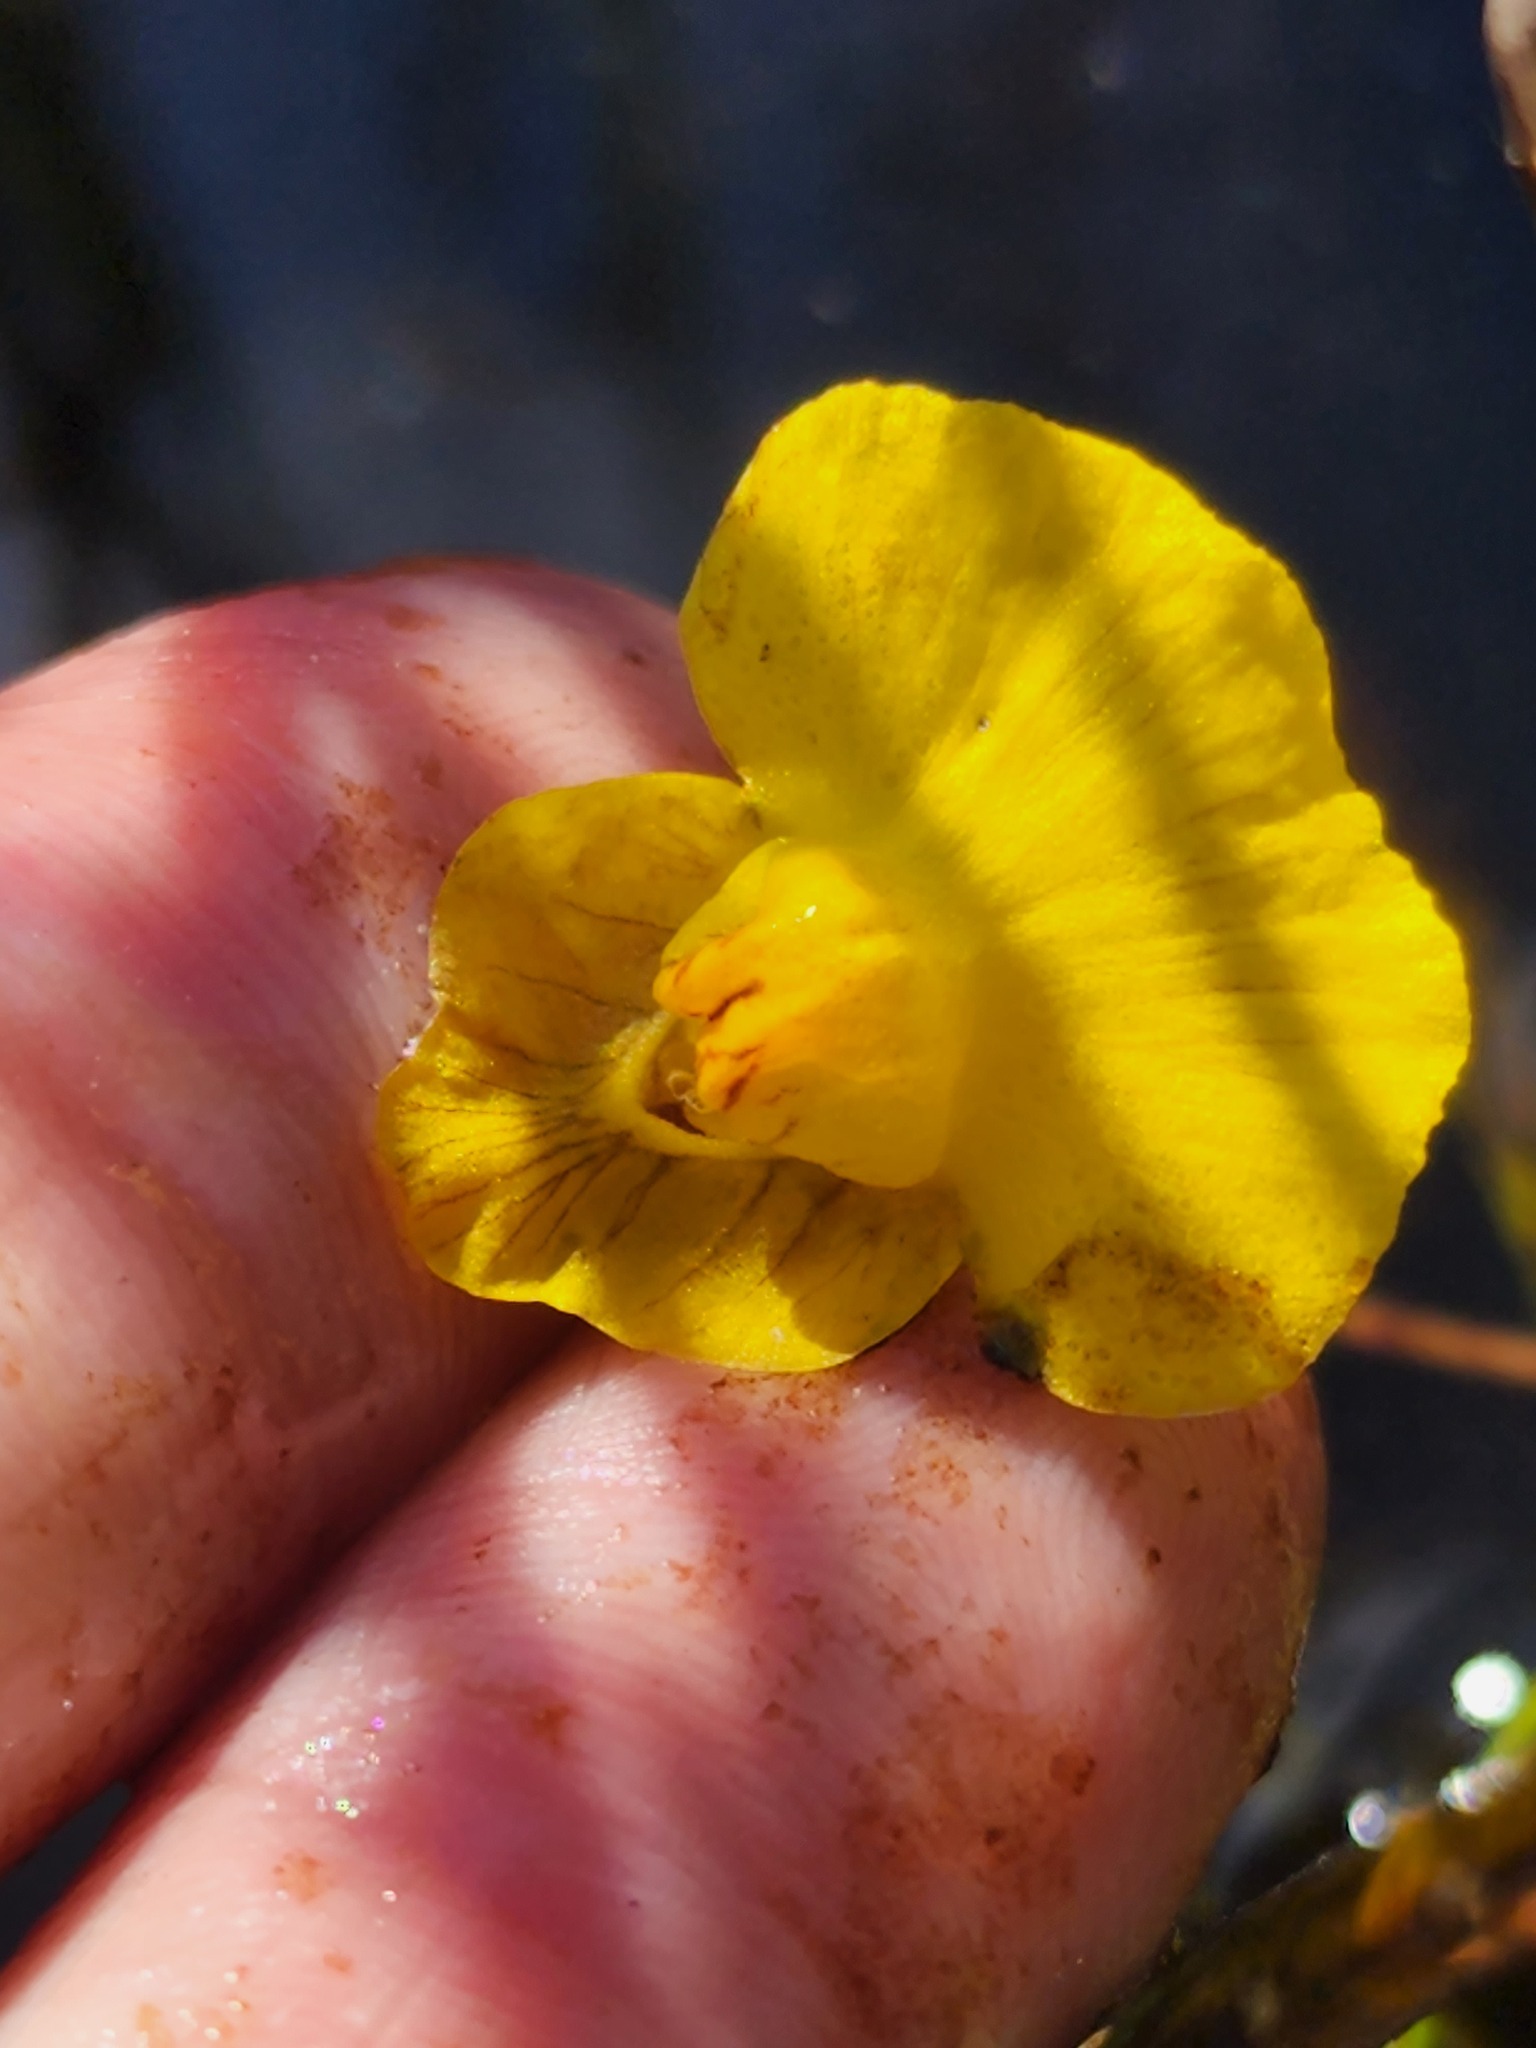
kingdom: Plantae
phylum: Tracheophyta
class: Magnoliopsida
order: Lamiales
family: Lentibulariaceae
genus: Utricularia
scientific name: Utricularia intermedia
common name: Intermediate bladderwort
